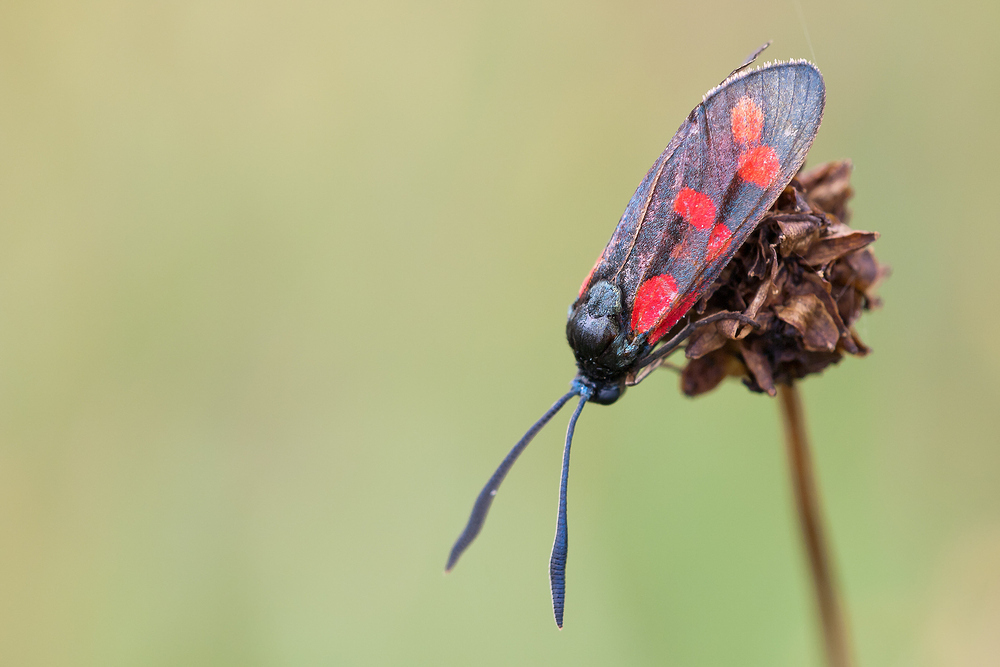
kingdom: Animalia
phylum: Arthropoda
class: Insecta
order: Lepidoptera
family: Zygaenidae
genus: Zygaena
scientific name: Zygaena filipendulae
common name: Six-spot burnet
